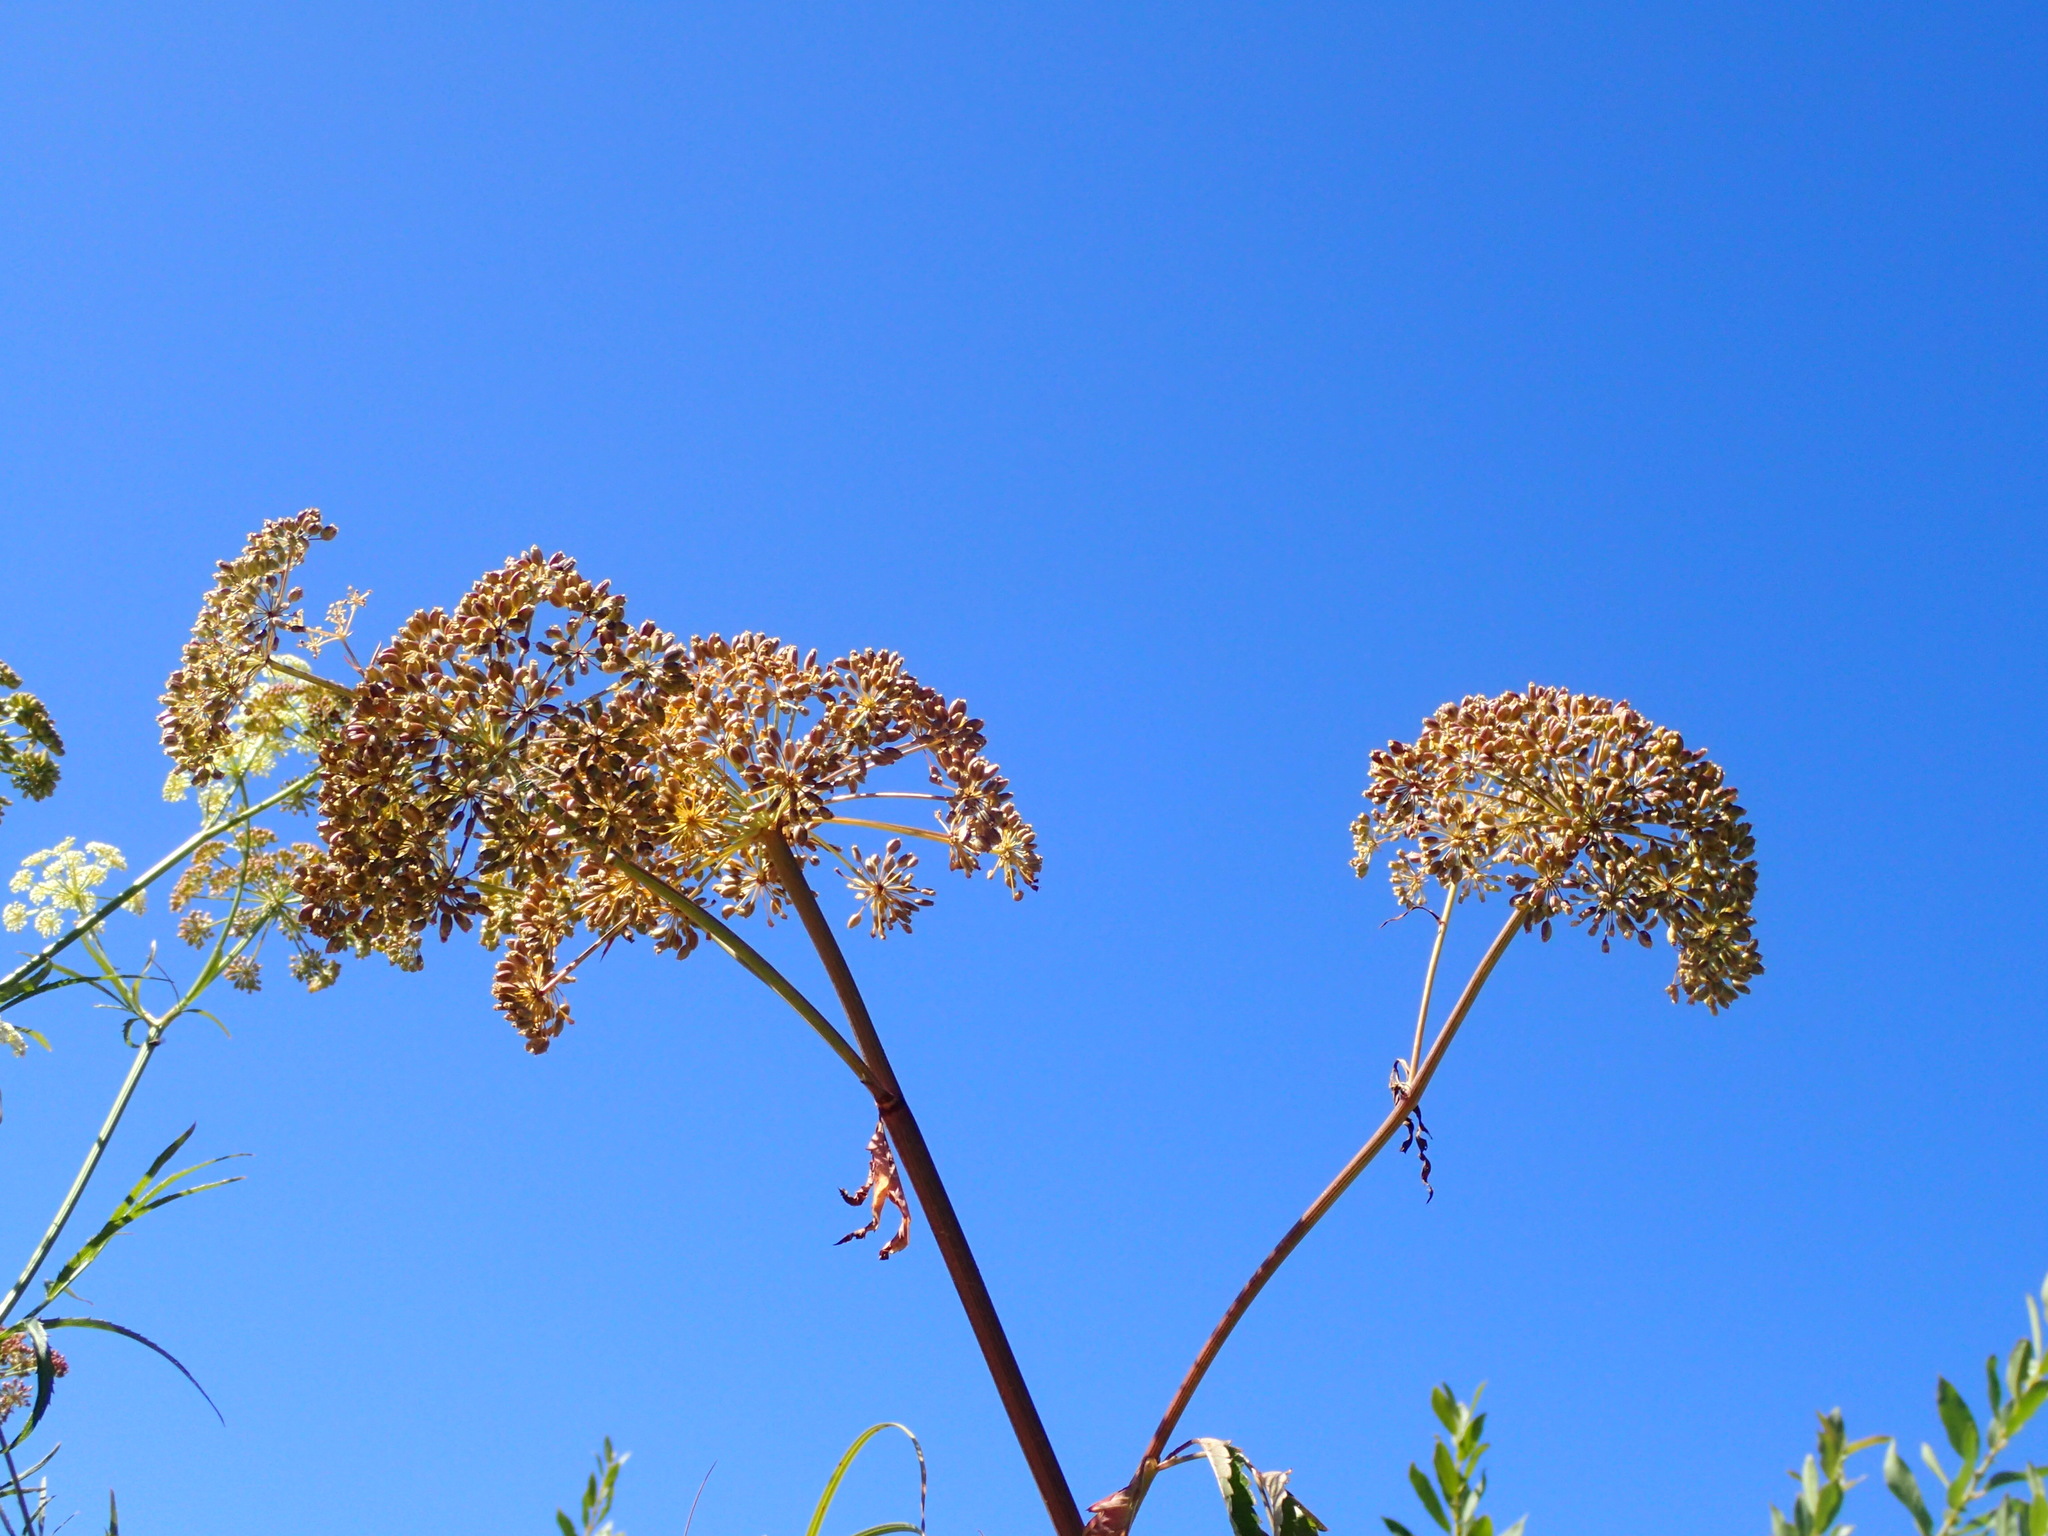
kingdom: Plantae
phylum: Tracheophyta
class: Magnoliopsida
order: Apiales
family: Apiaceae
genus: Cicuta
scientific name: Cicuta maculata
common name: Spotted cowbane
